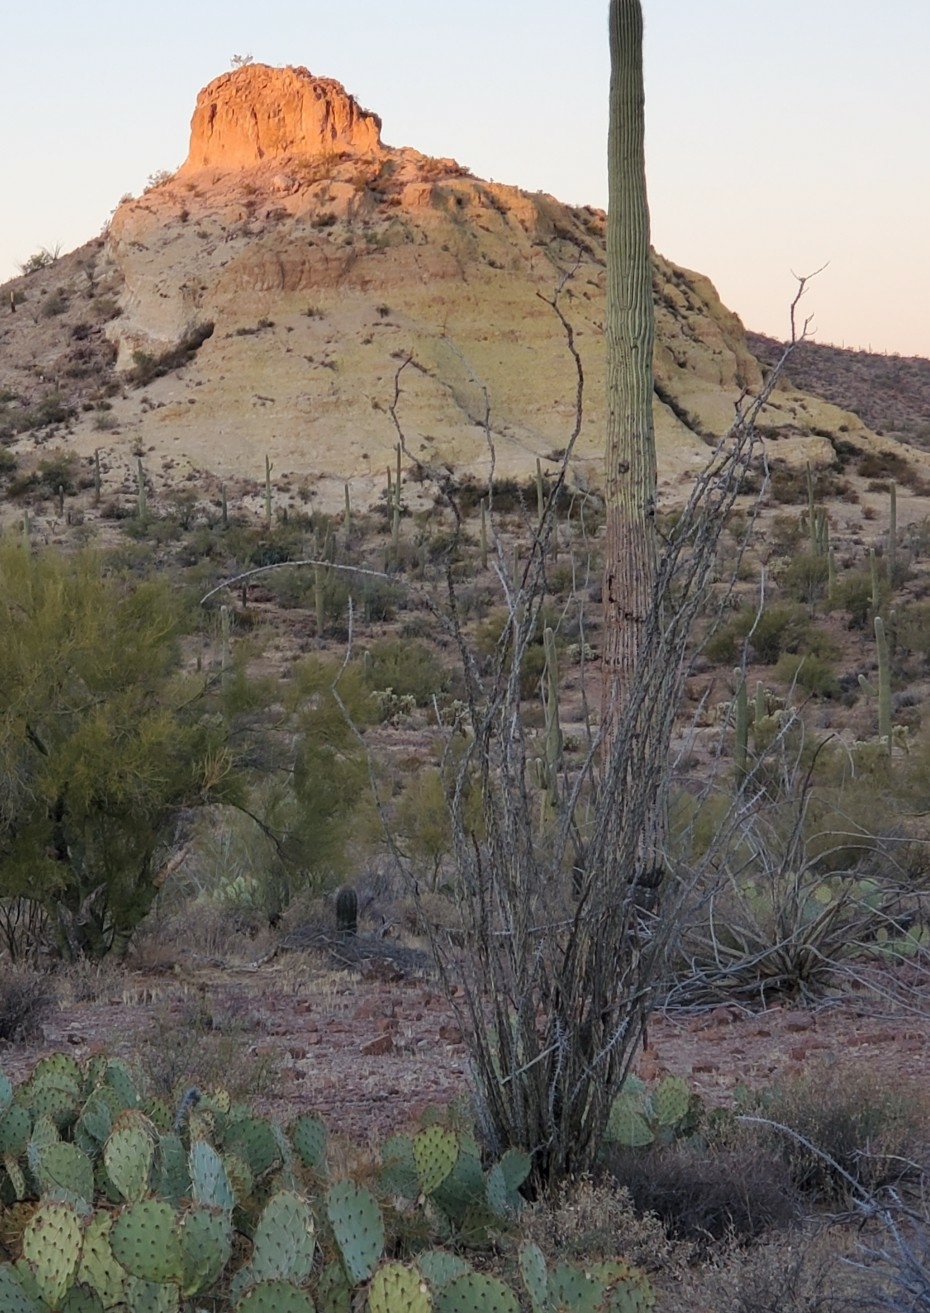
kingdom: Plantae
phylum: Tracheophyta
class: Magnoliopsida
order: Ericales
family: Fouquieriaceae
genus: Fouquieria
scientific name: Fouquieria splendens
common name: Vine-cactus
